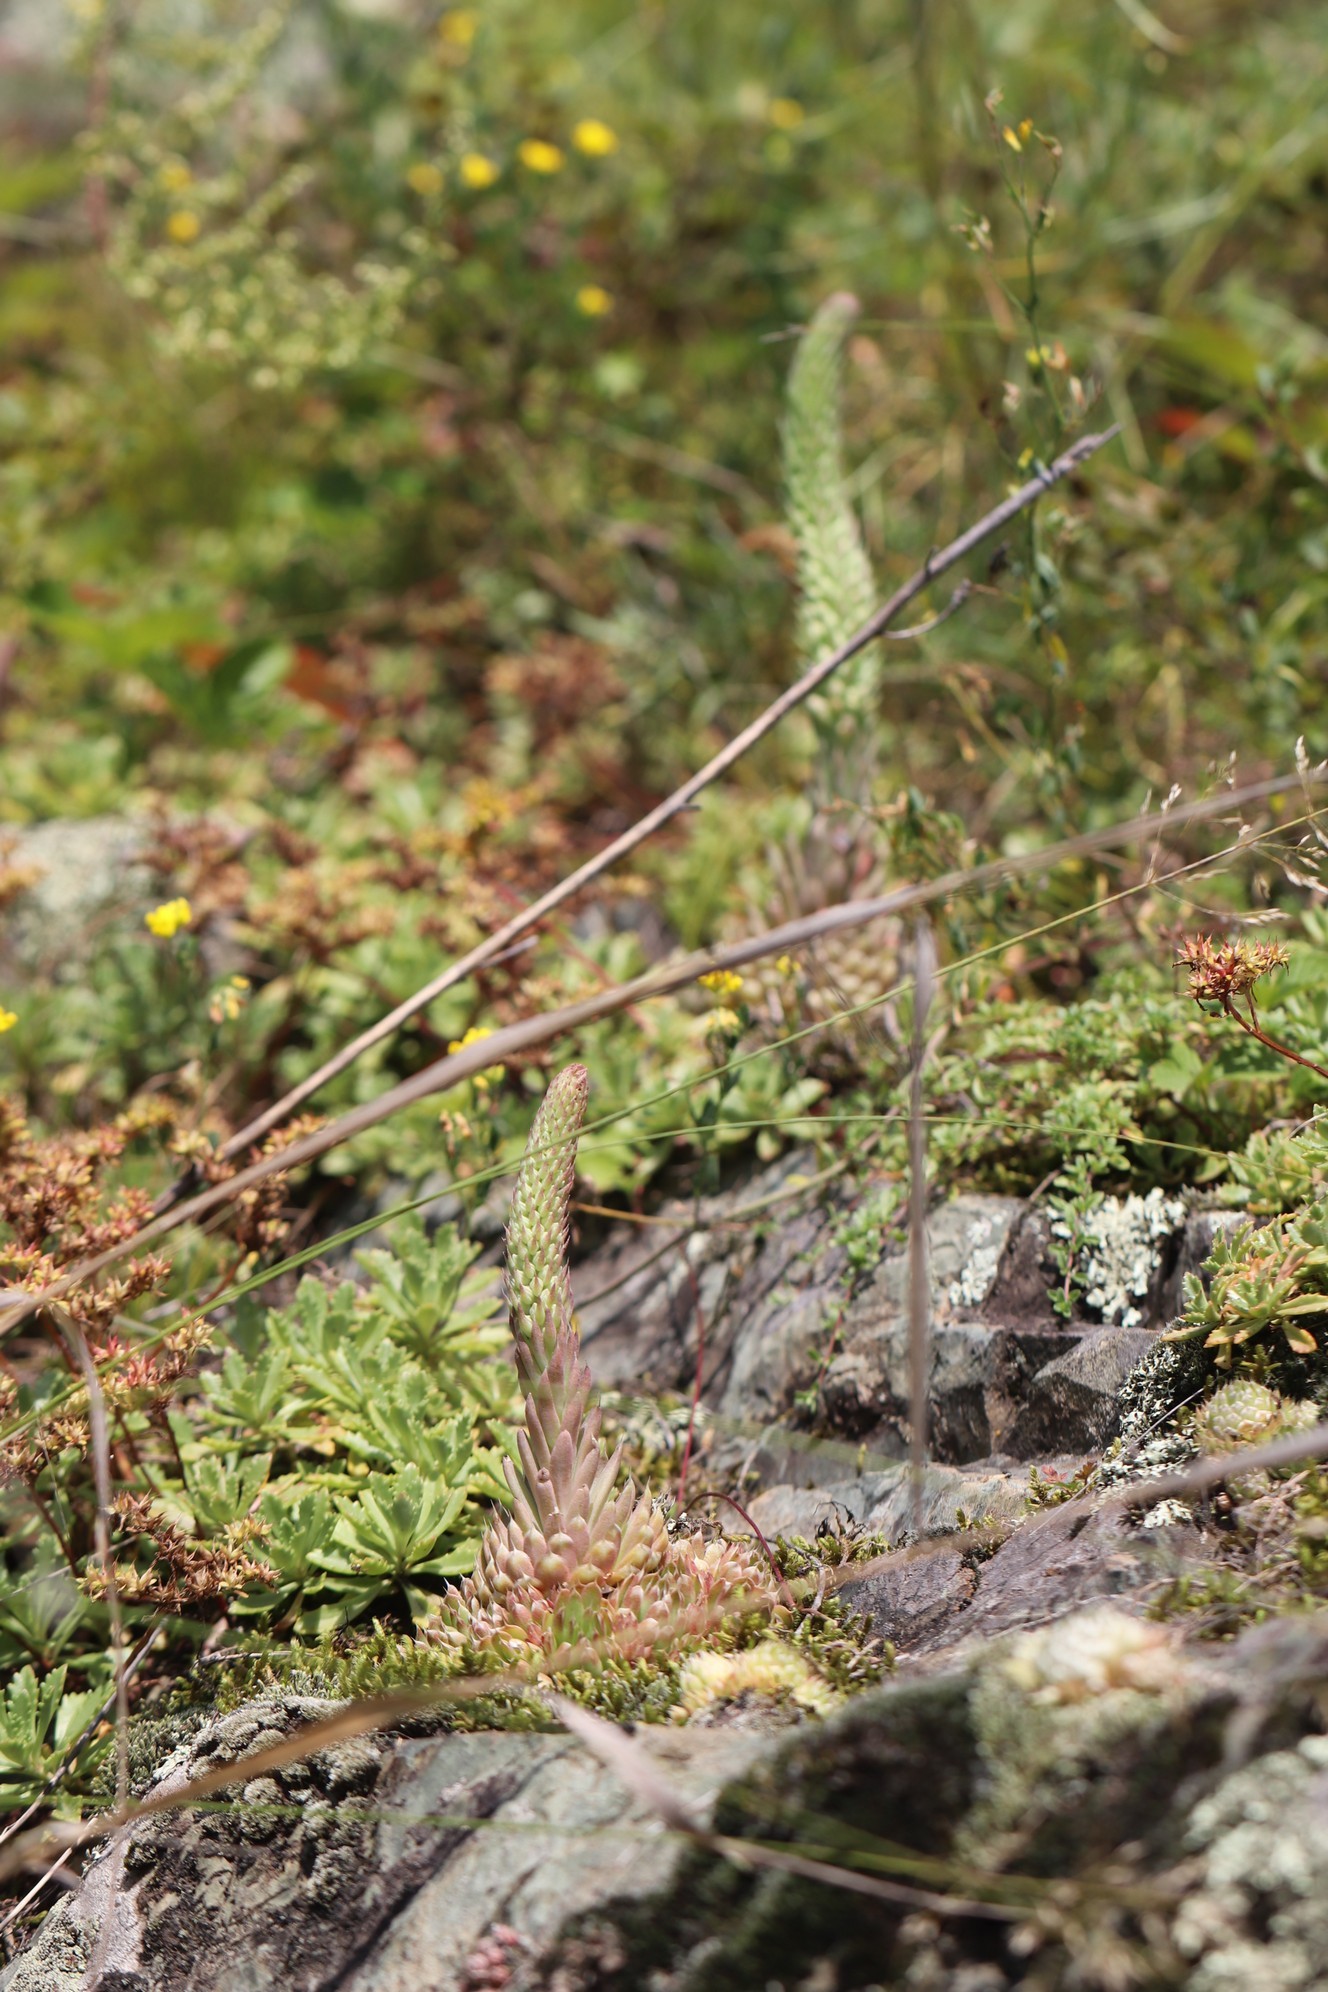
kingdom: Plantae
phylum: Tracheophyta
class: Magnoliopsida
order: Saxifragales
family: Crassulaceae
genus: Orostachys
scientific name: Orostachys spinosa
